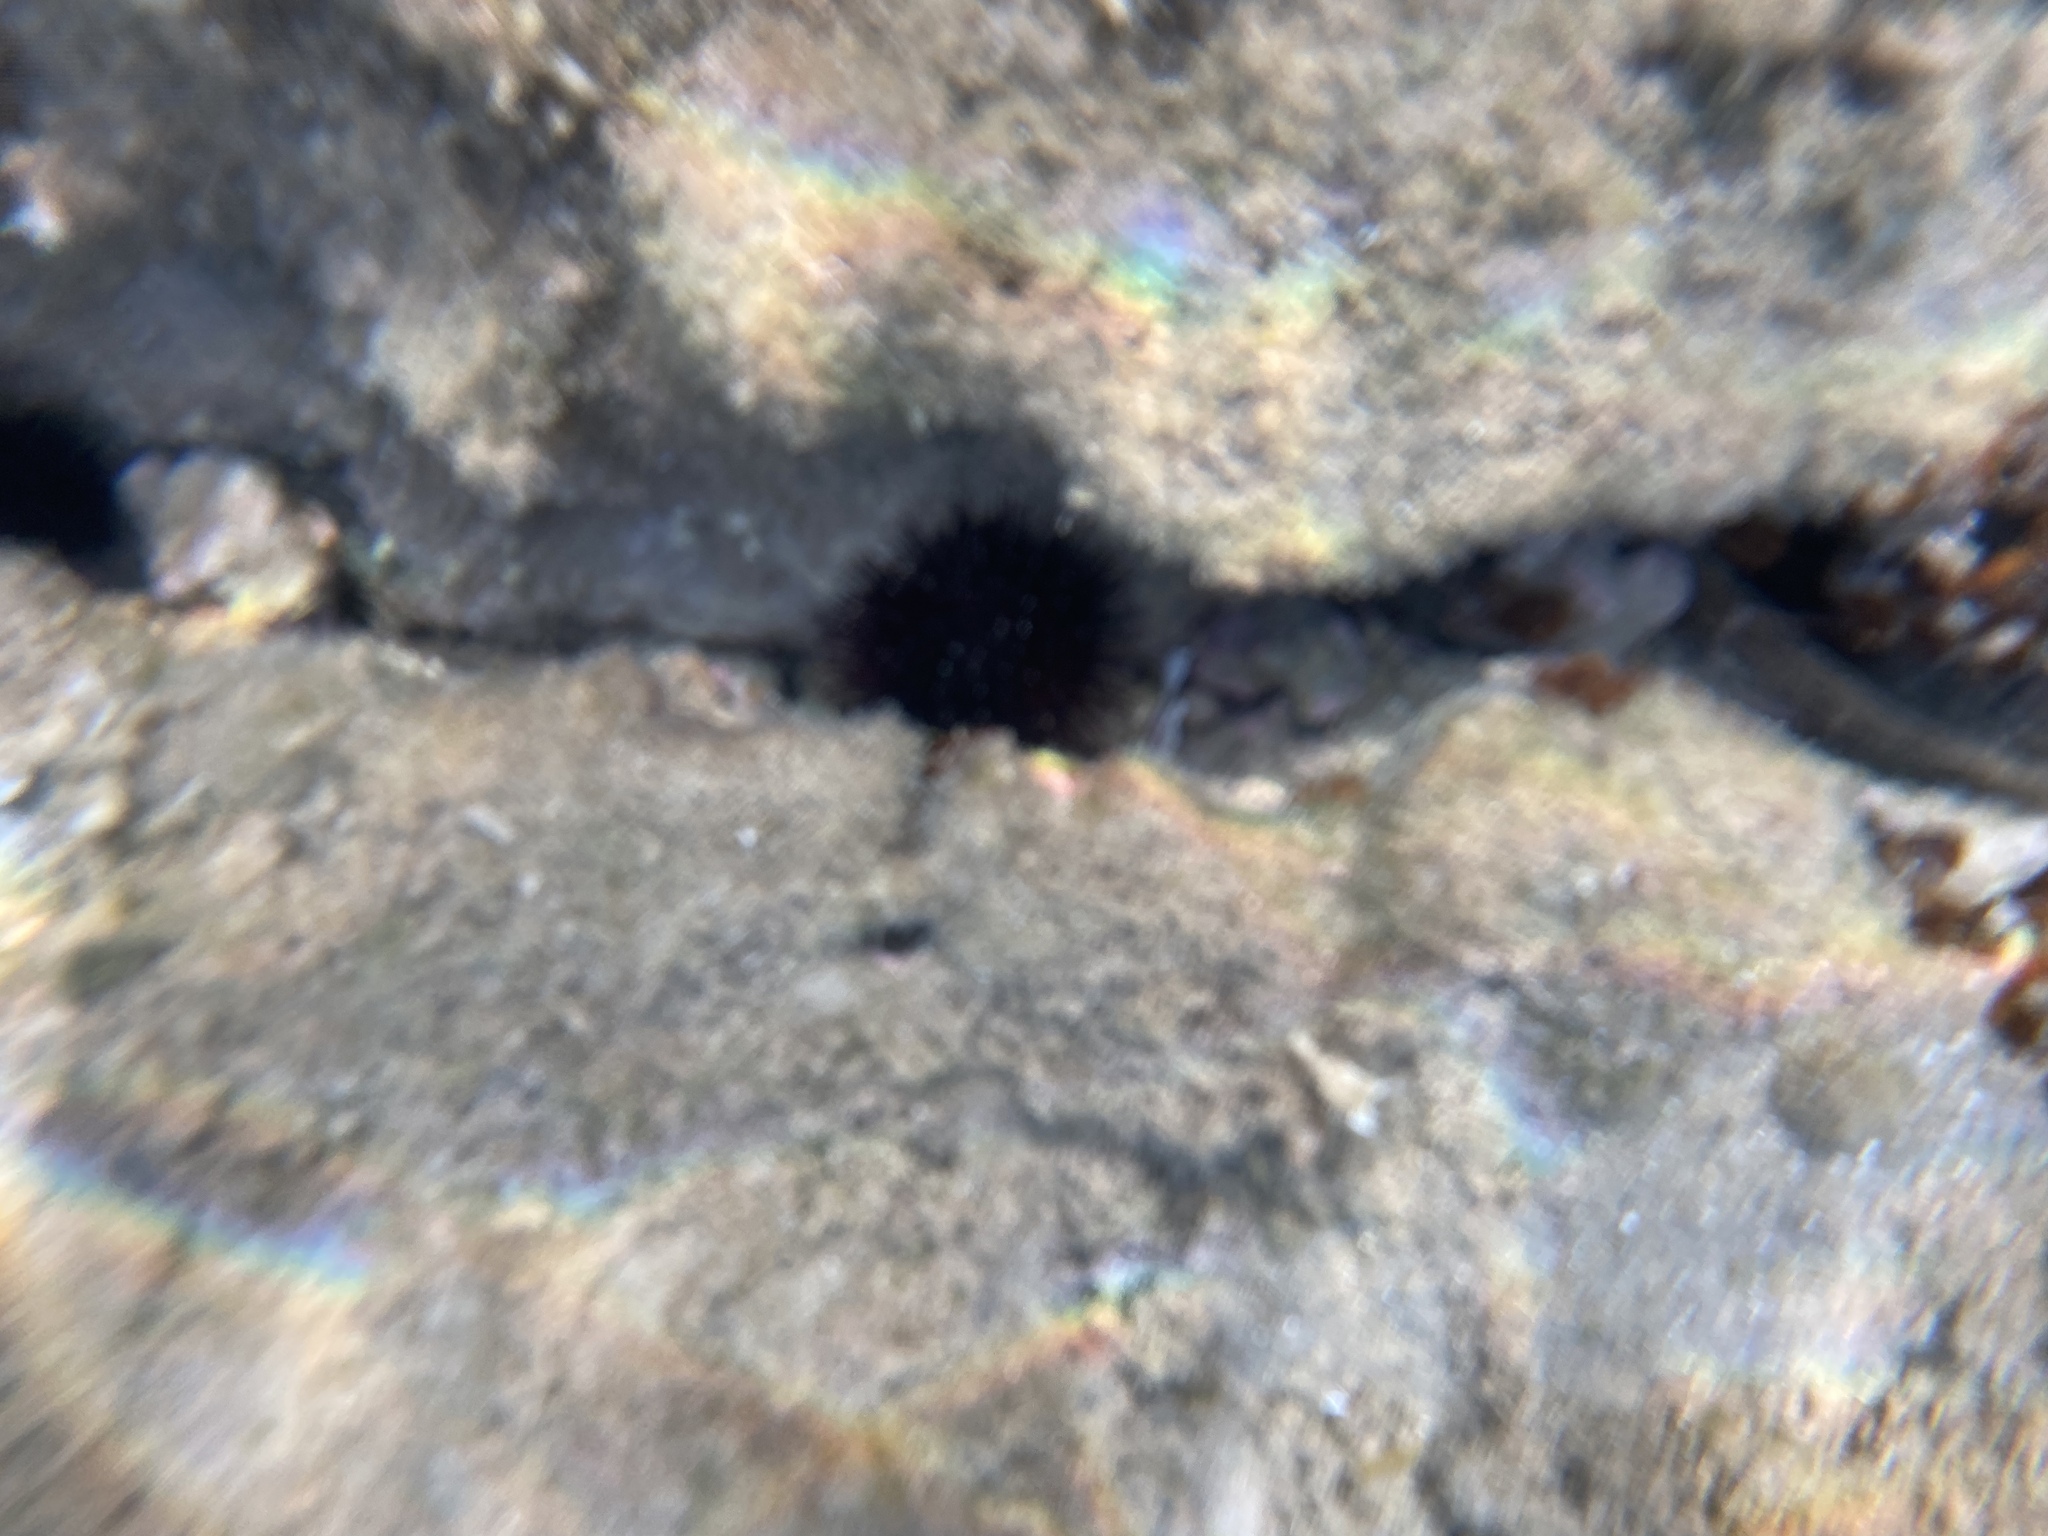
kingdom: Animalia
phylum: Echinodermata
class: Echinoidea
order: Arbacioida
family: Arbaciidae
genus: Arbacia
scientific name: Arbacia lixula
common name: Black sea urchin
